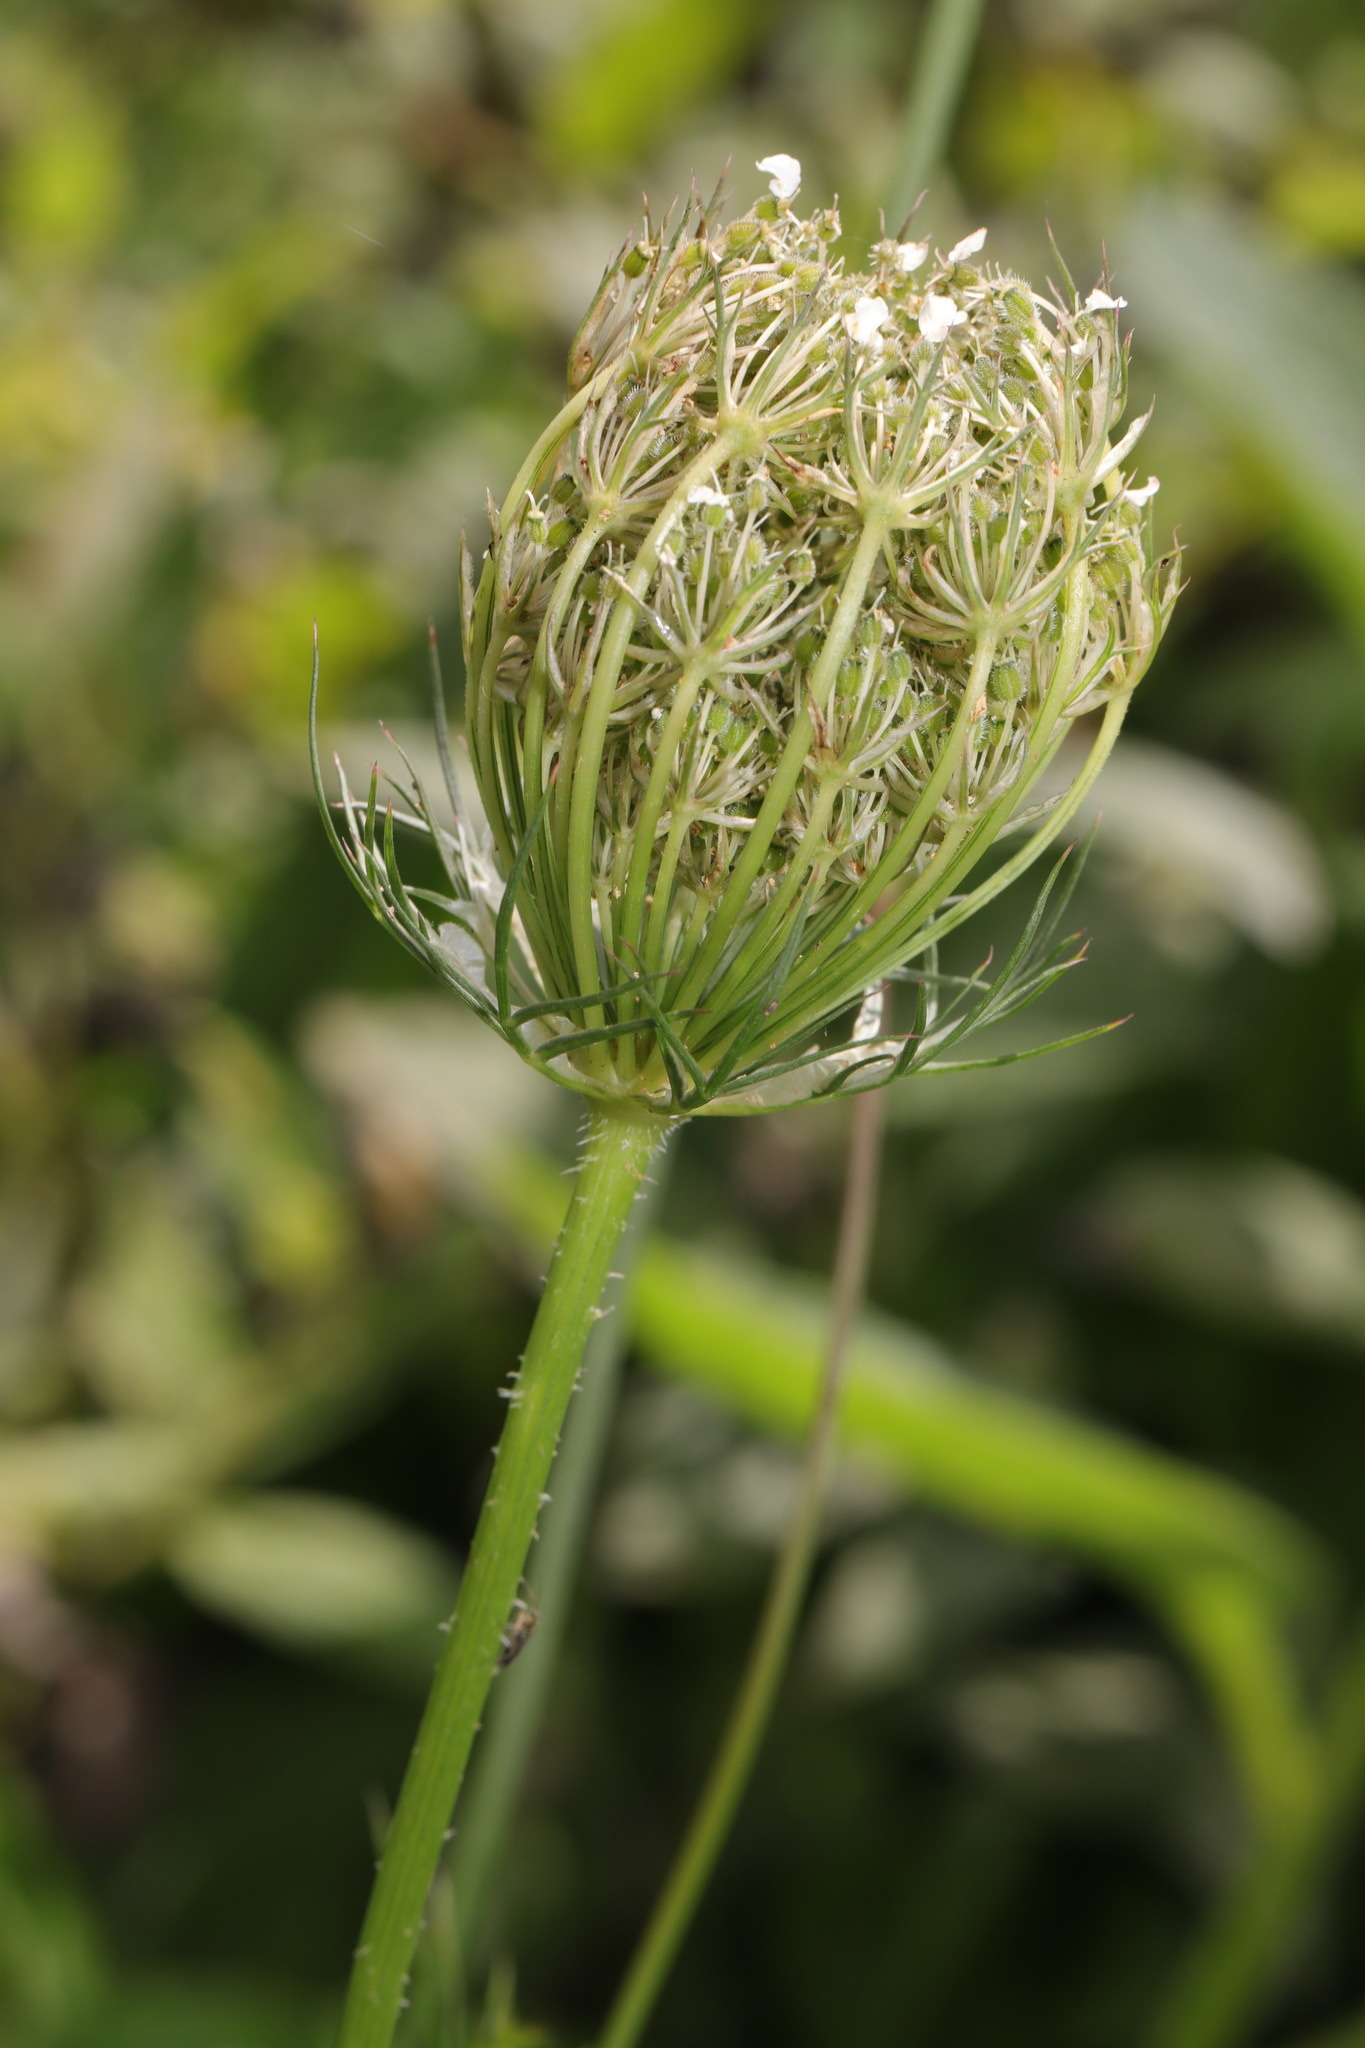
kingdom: Plantae
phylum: Tracheophyta
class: Magnoliopsida
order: Apiales
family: Apiaceae
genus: Daucus
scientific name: Daucus carota
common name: Wild carrot
